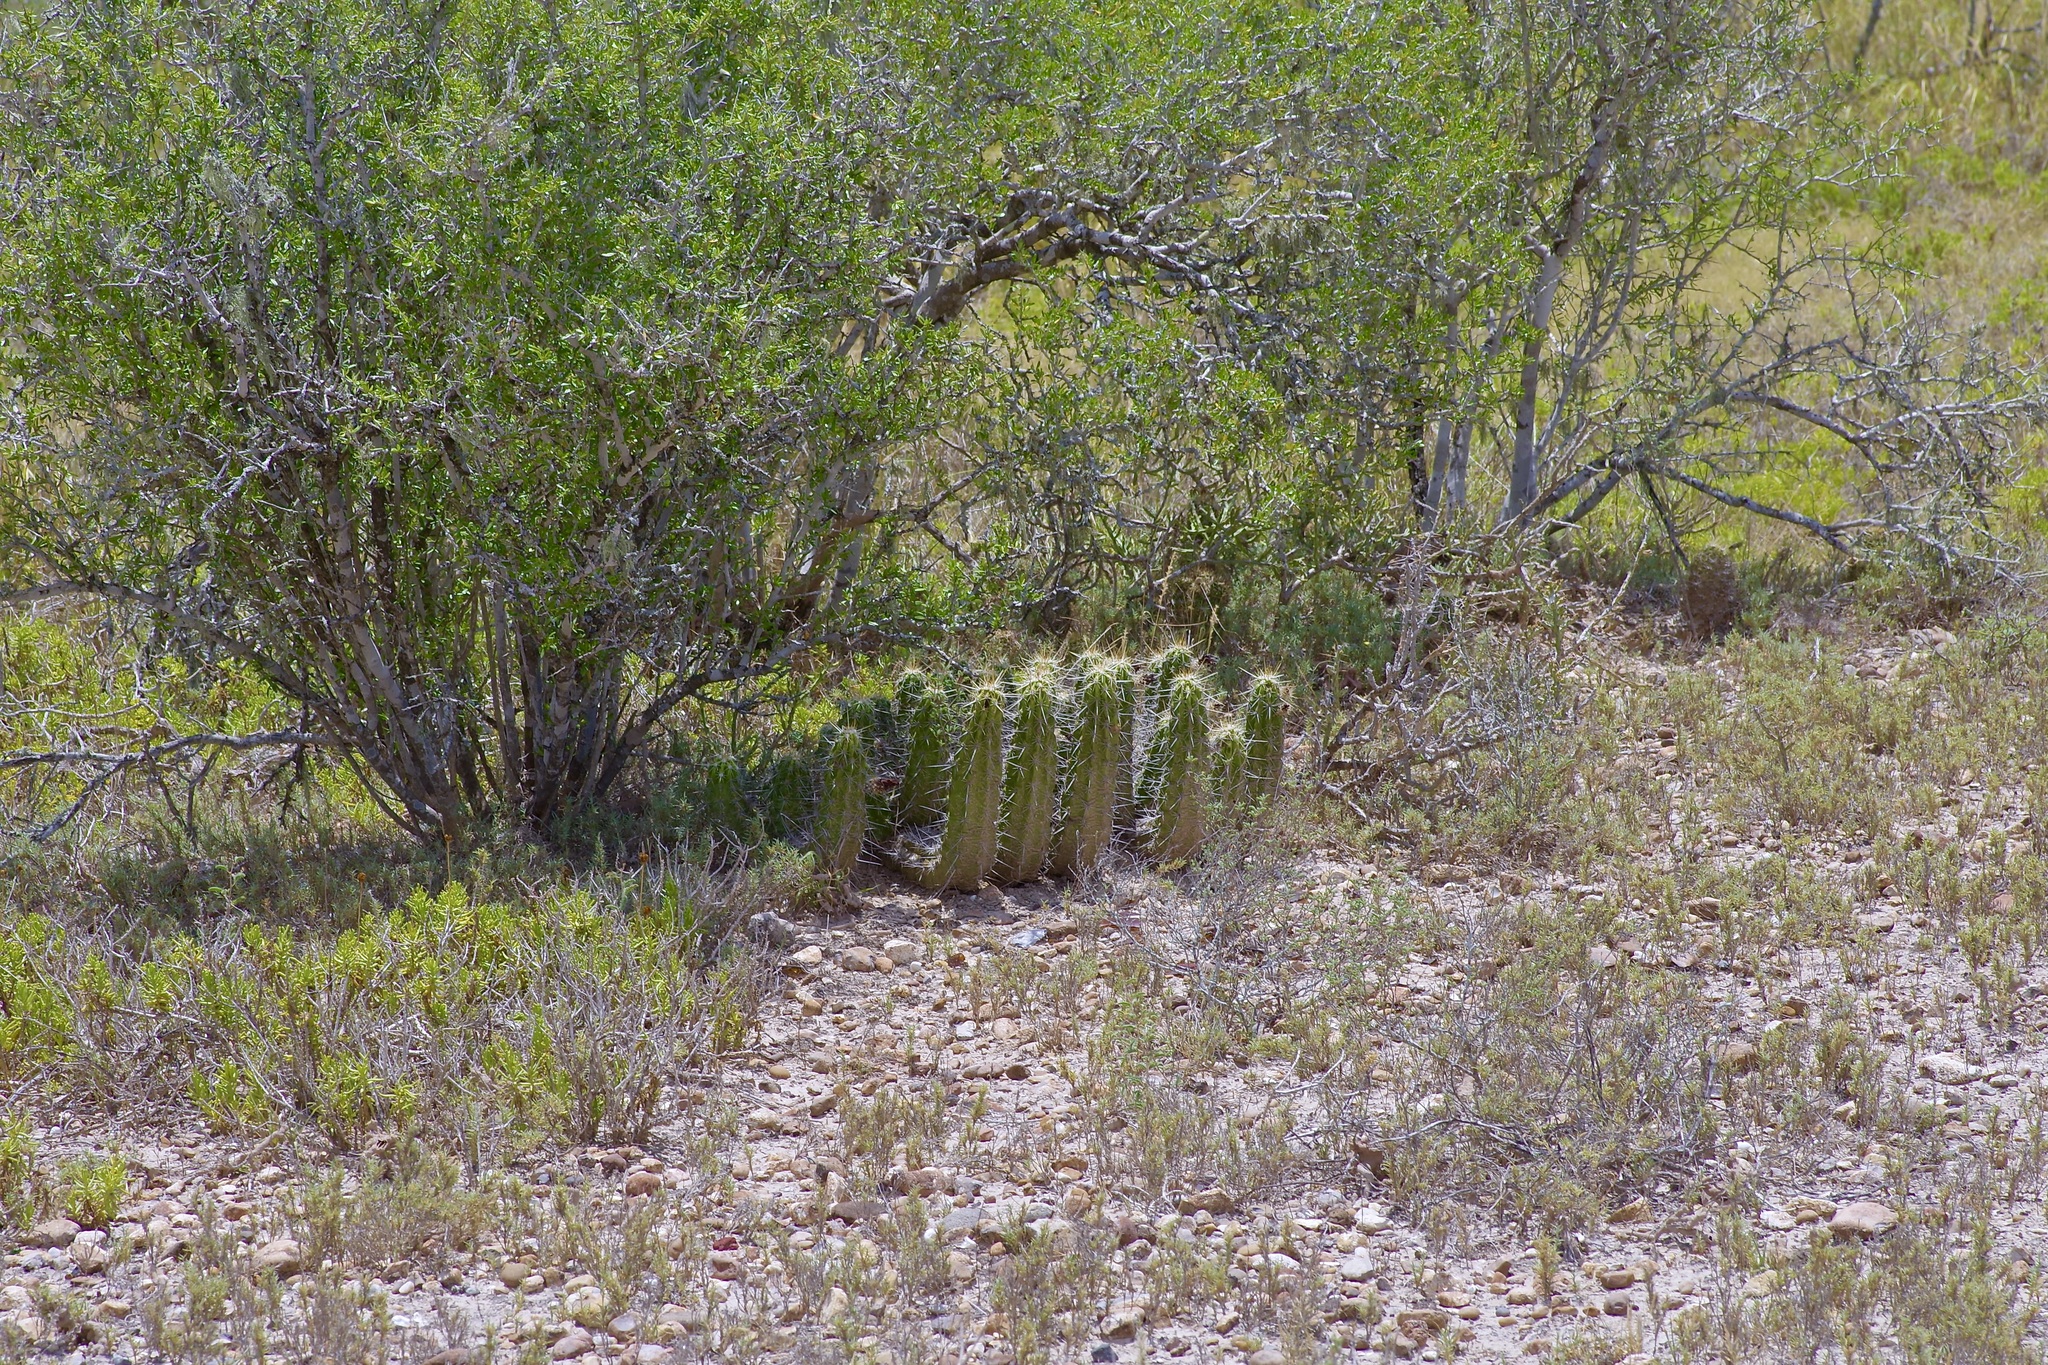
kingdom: Plantae
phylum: Tracheophyta
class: Magnoliopsida
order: Caryophyllales
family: Cactaceae
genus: Echinocereus
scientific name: Echinocereus enneacanthus
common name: Pitaya
